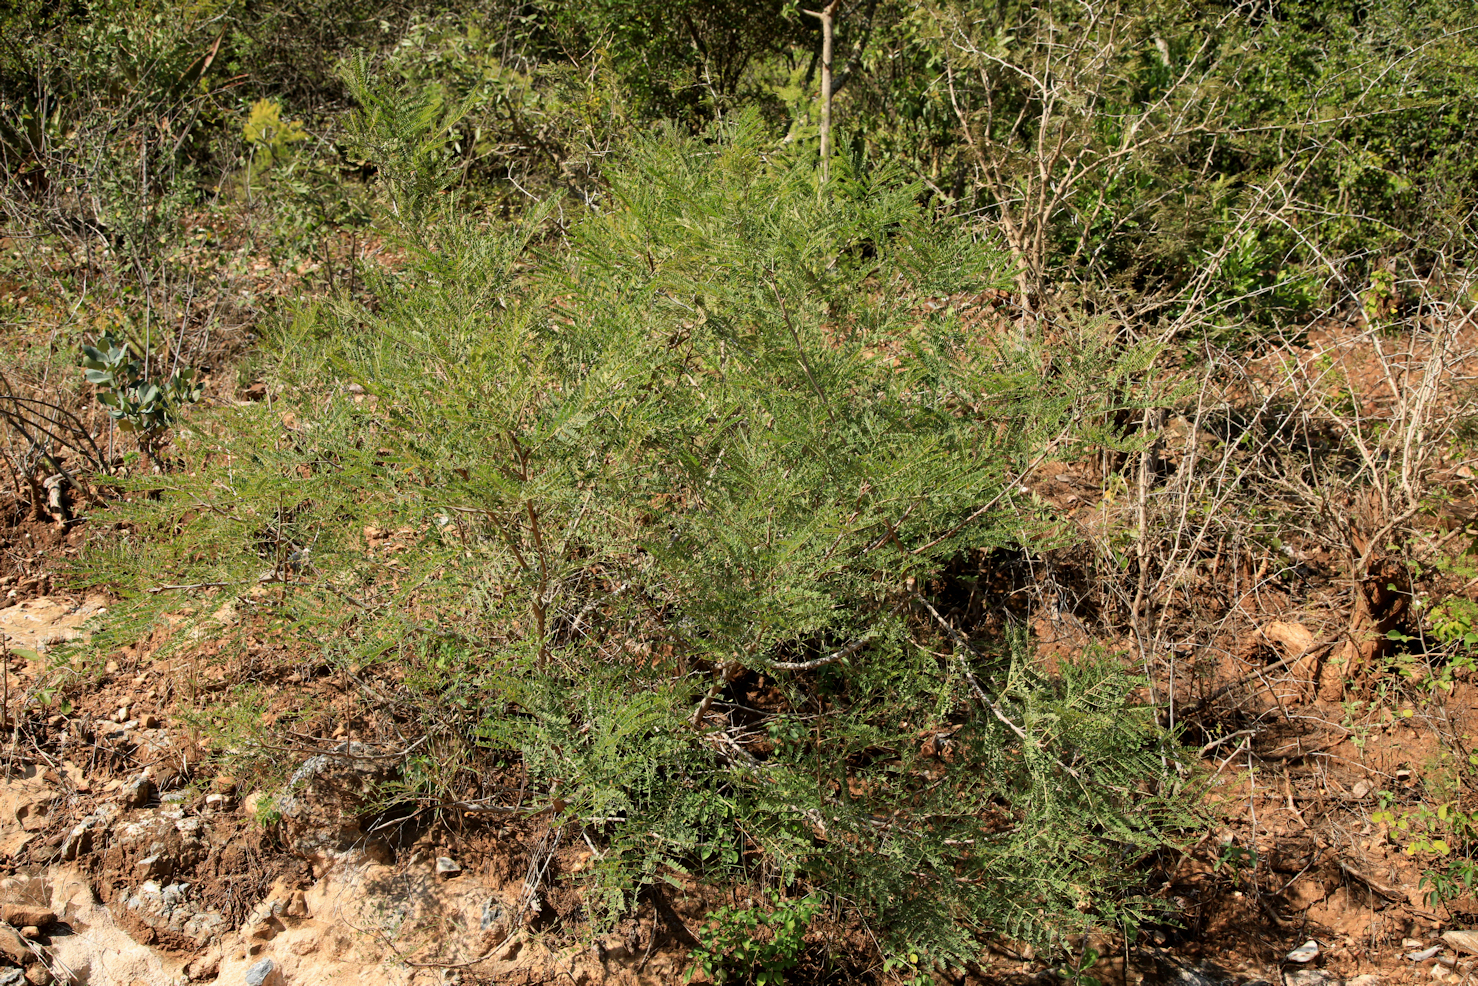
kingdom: Plantae
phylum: Tracheophyta
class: Magnoliopsida
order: Fabales
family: Fabaceae
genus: Peltophorum
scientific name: Peltophorum africanum
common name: African black wattle
